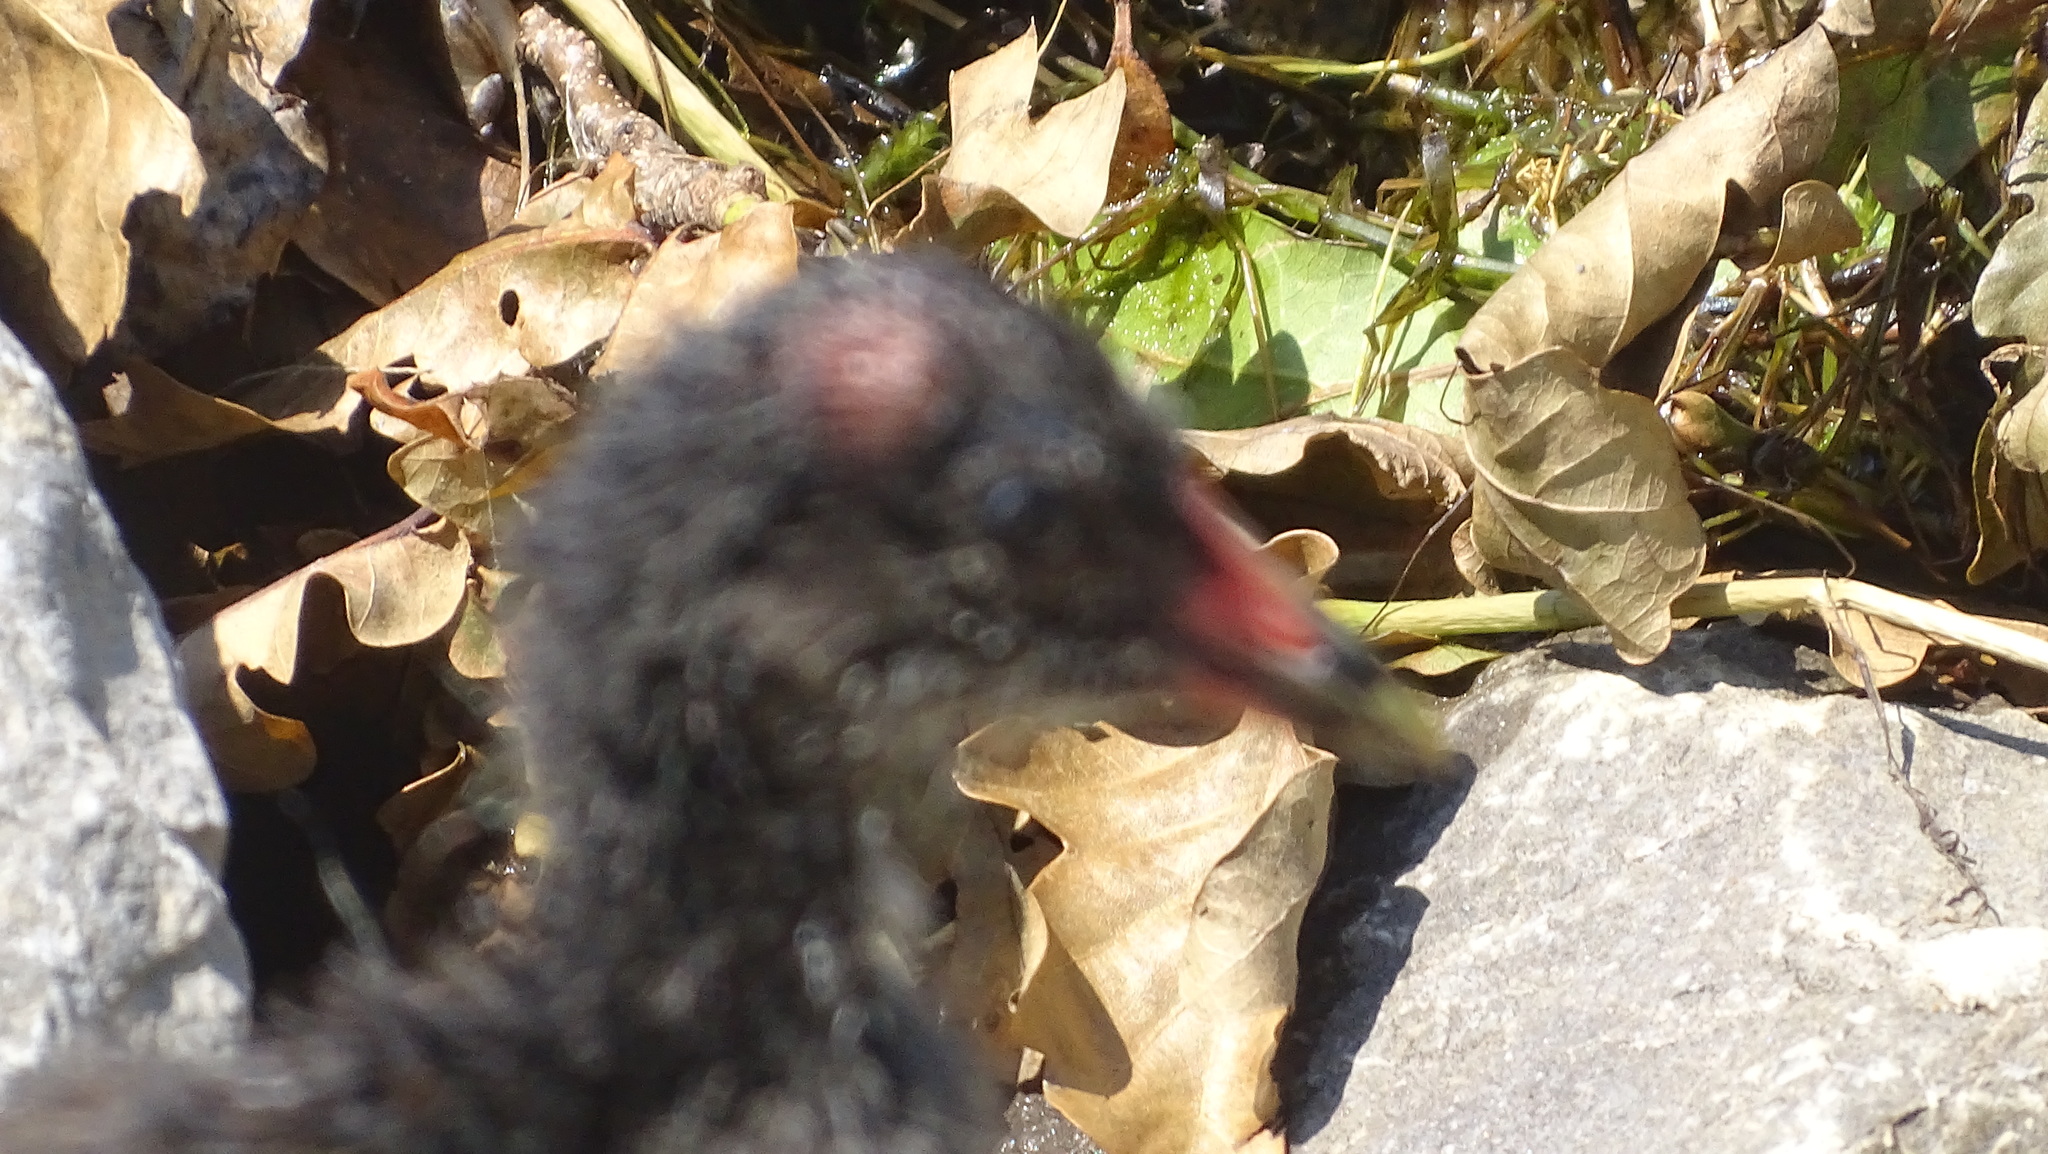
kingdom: Animalia
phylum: Chordata
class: Aves
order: Gruiformes
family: Rallidae
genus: Gallinula
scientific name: Gallinula chloropus
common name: Common moorhen
